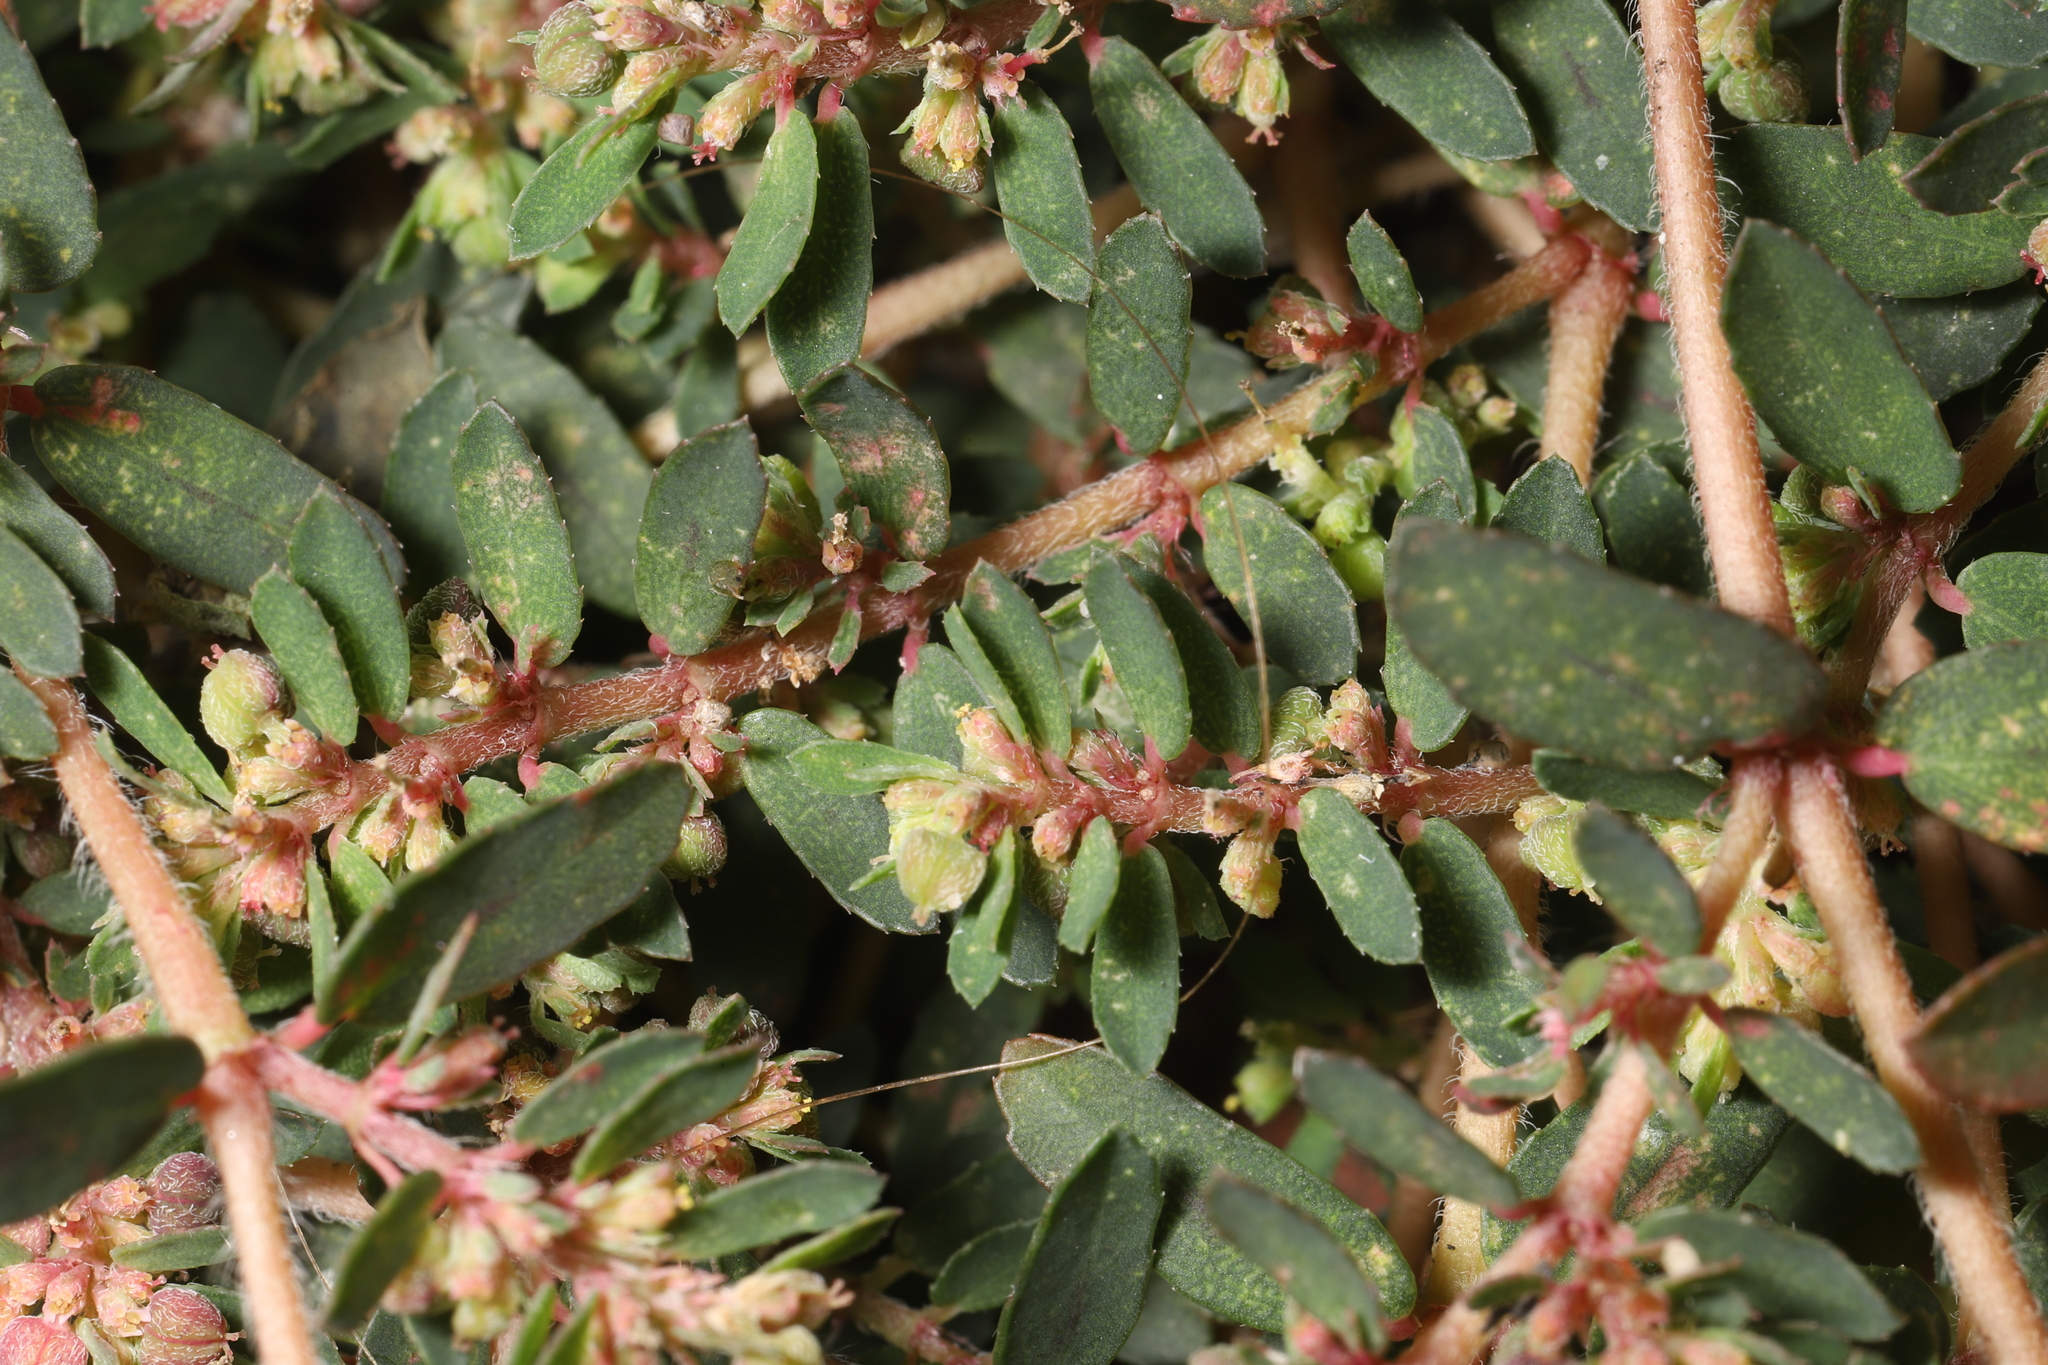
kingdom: Plantae
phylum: Tracheophyta
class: Magnoliopsida
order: Malpighiales
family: Euphorbiaceae
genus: Euphorbia
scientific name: Euphorbia maculata
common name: Spotted spurge
